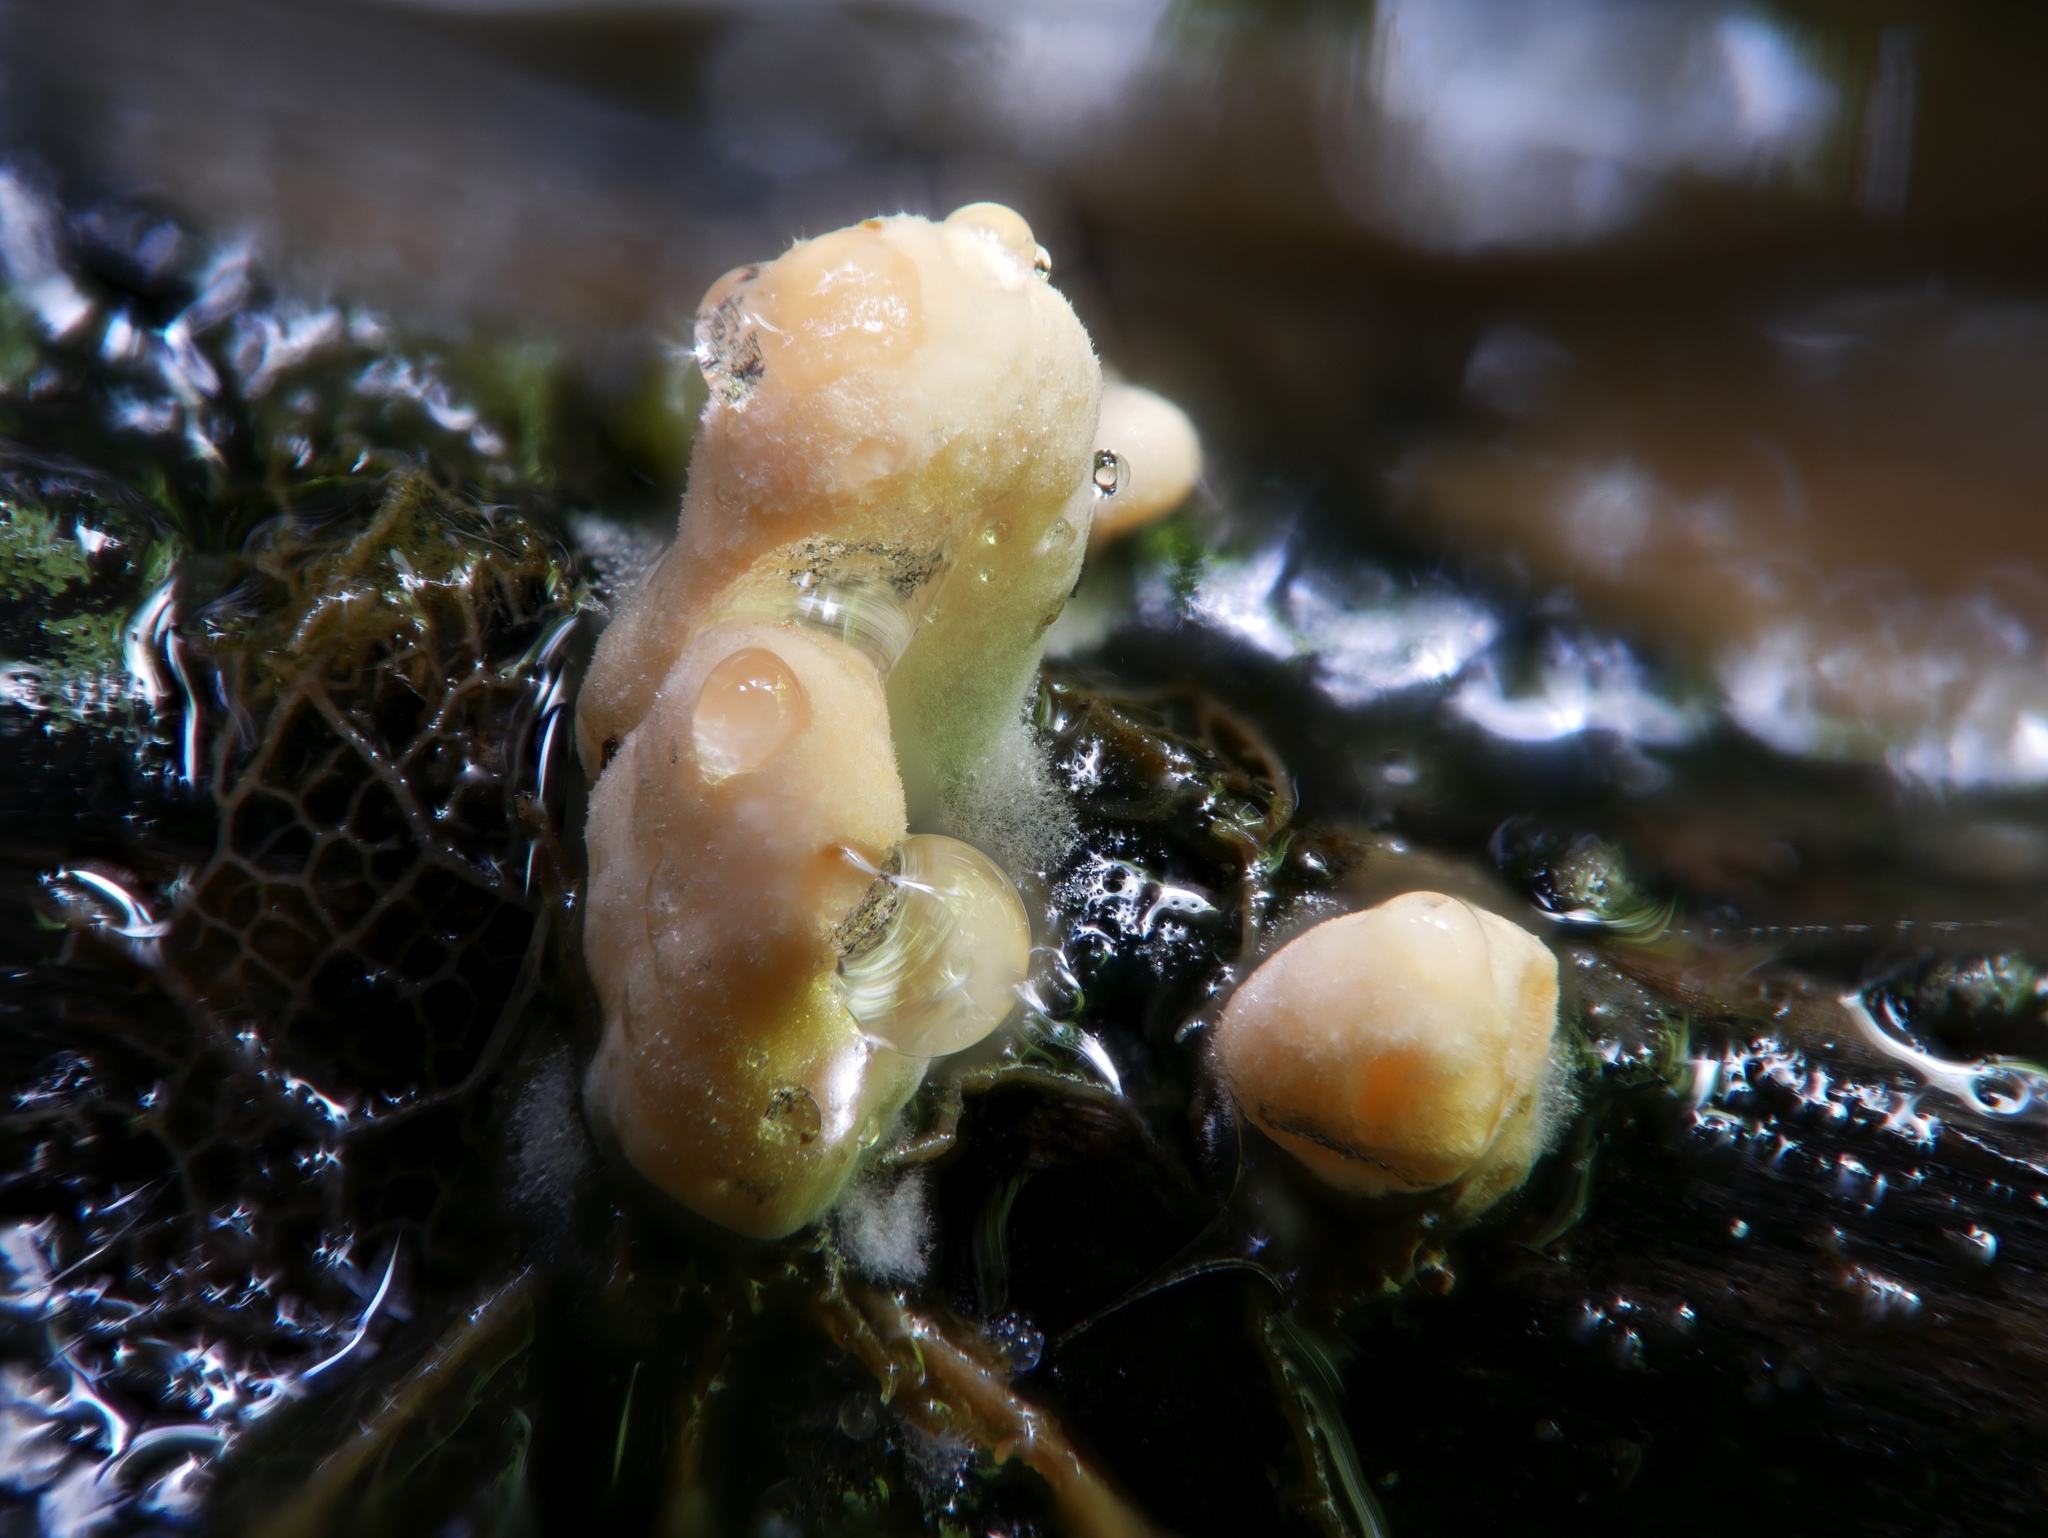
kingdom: Fungi
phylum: Ascomycota
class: Sordariomycetes
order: Xylariales
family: Xylariaceae
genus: Xylaria
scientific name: Xylaria cubensis
